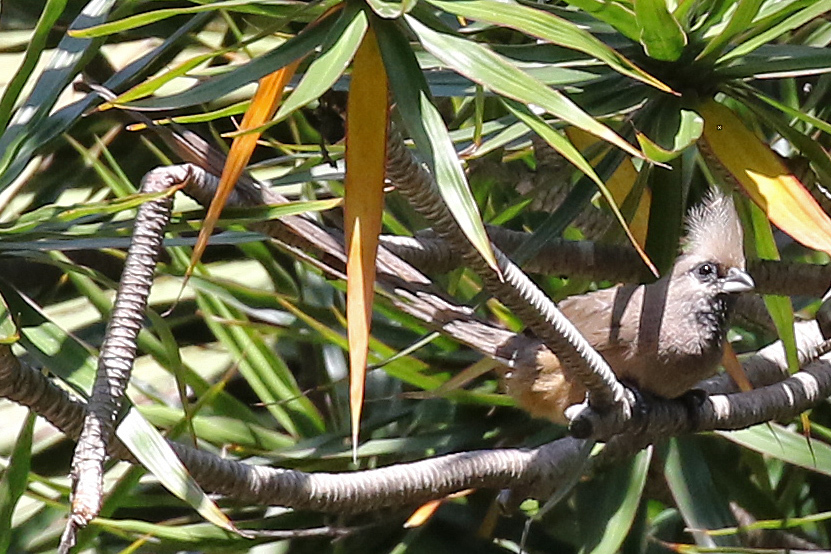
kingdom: Animalia
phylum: Chordata
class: Aves
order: Coliiformes
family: Coliidae
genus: Colius
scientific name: Colius striatus
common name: Speckled mousebird
